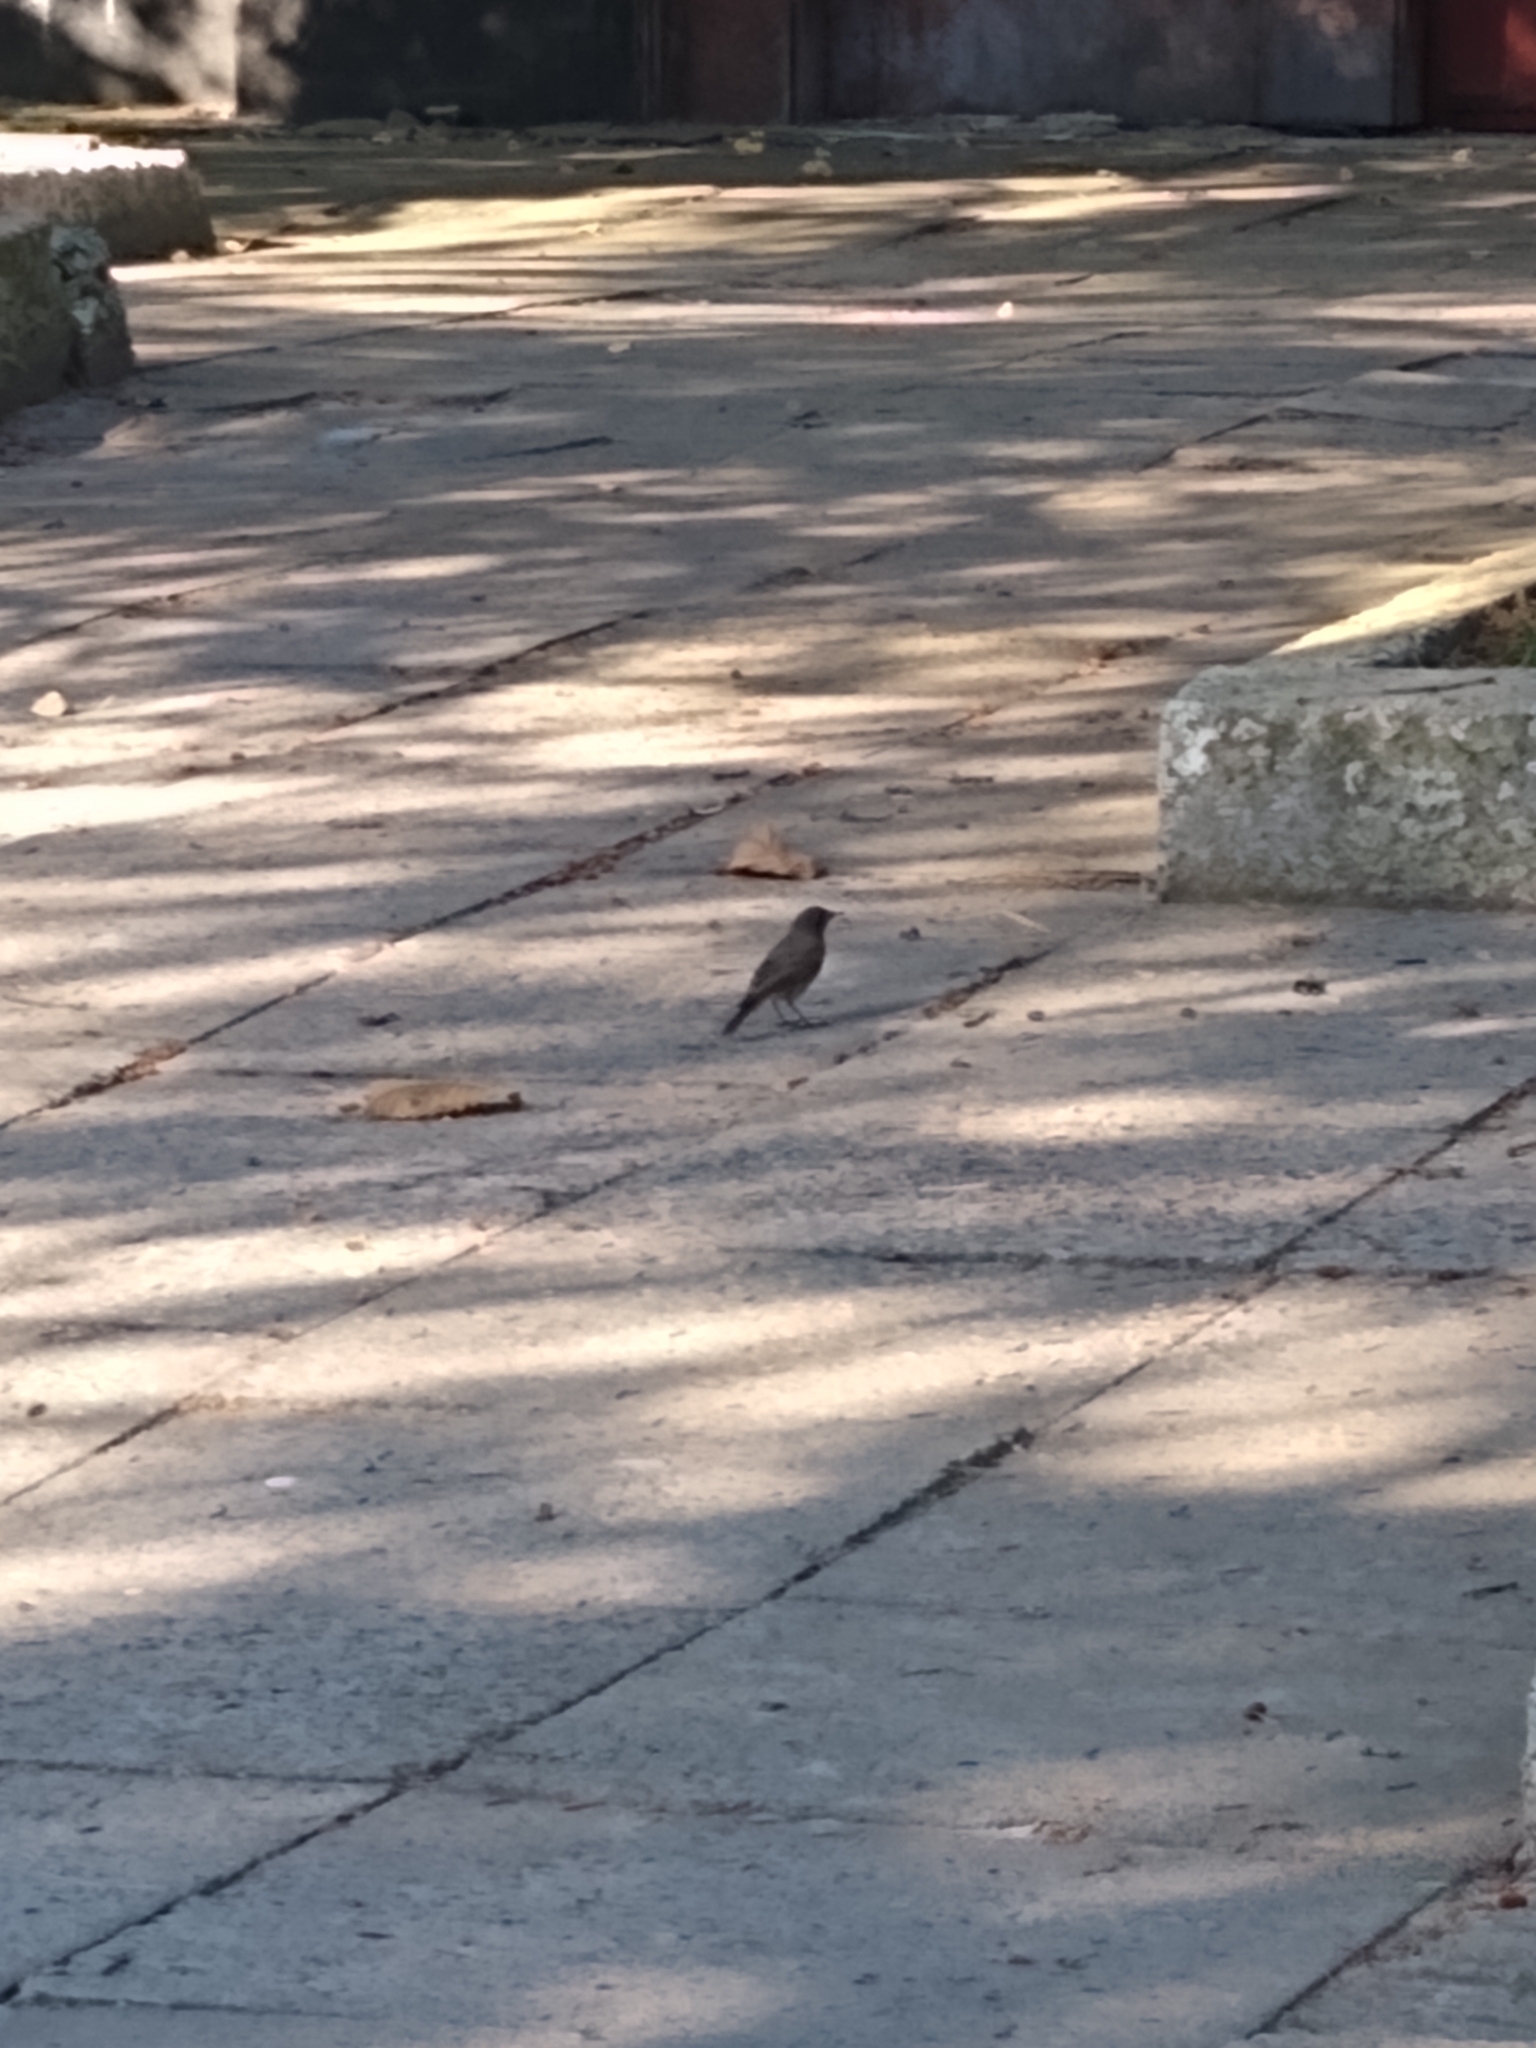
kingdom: Animalia
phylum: Chordata
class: Aves
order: Passeriformes
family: Muscicapidae
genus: Phoenicurus
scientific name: Phoenicurus ochruros
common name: Black redstart
